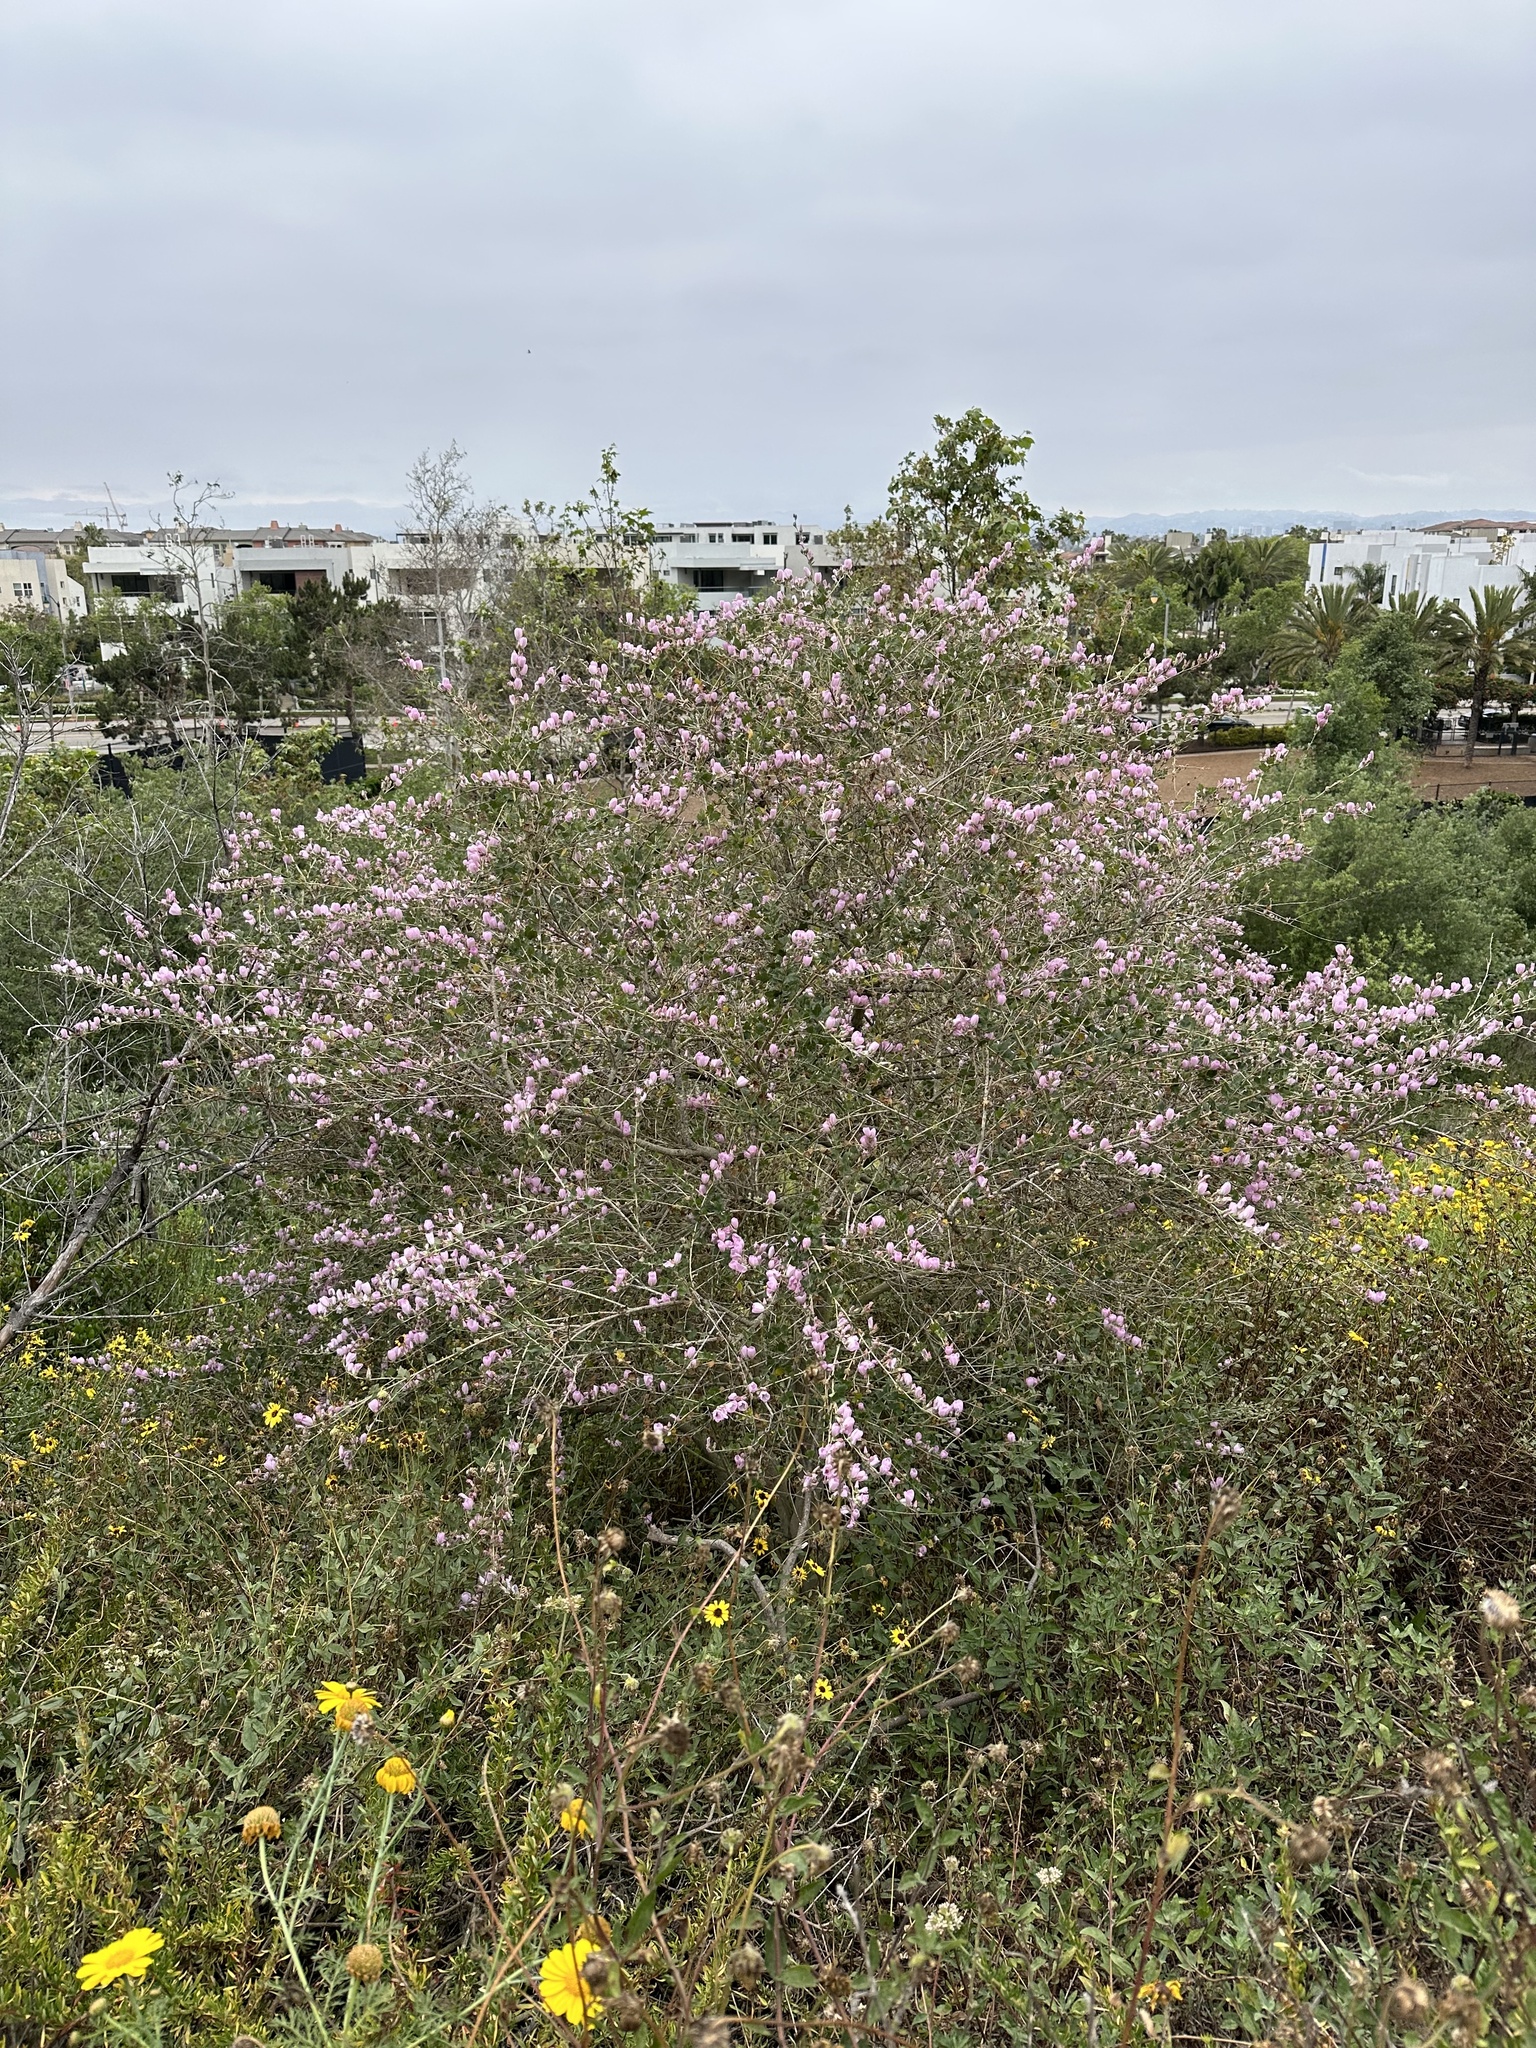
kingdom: Plantae
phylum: Tracheophyta
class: Magnoliopsida
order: Malvales
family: Malvaceae
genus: Malacothamnus
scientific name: Malacothamnus fasciculatus
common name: Sant cruz island bush-mallow
